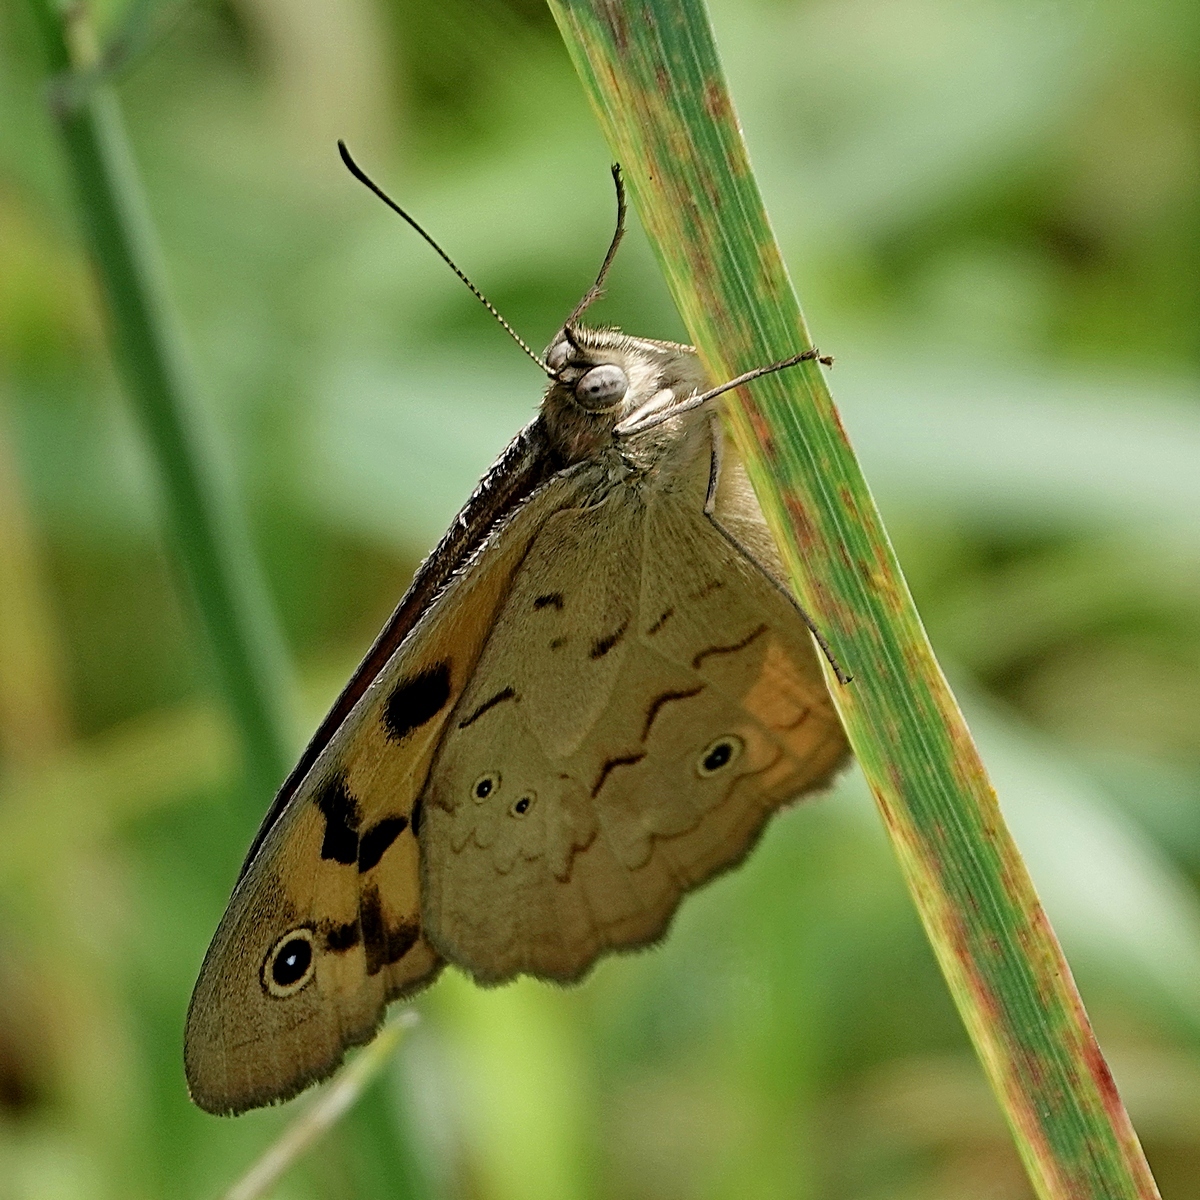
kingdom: Animalia
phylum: Arthropoda
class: Insecta
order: Lepidoptera
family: Nymphalidae
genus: Heteronympha
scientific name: Heteronympha merope
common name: Common brown
